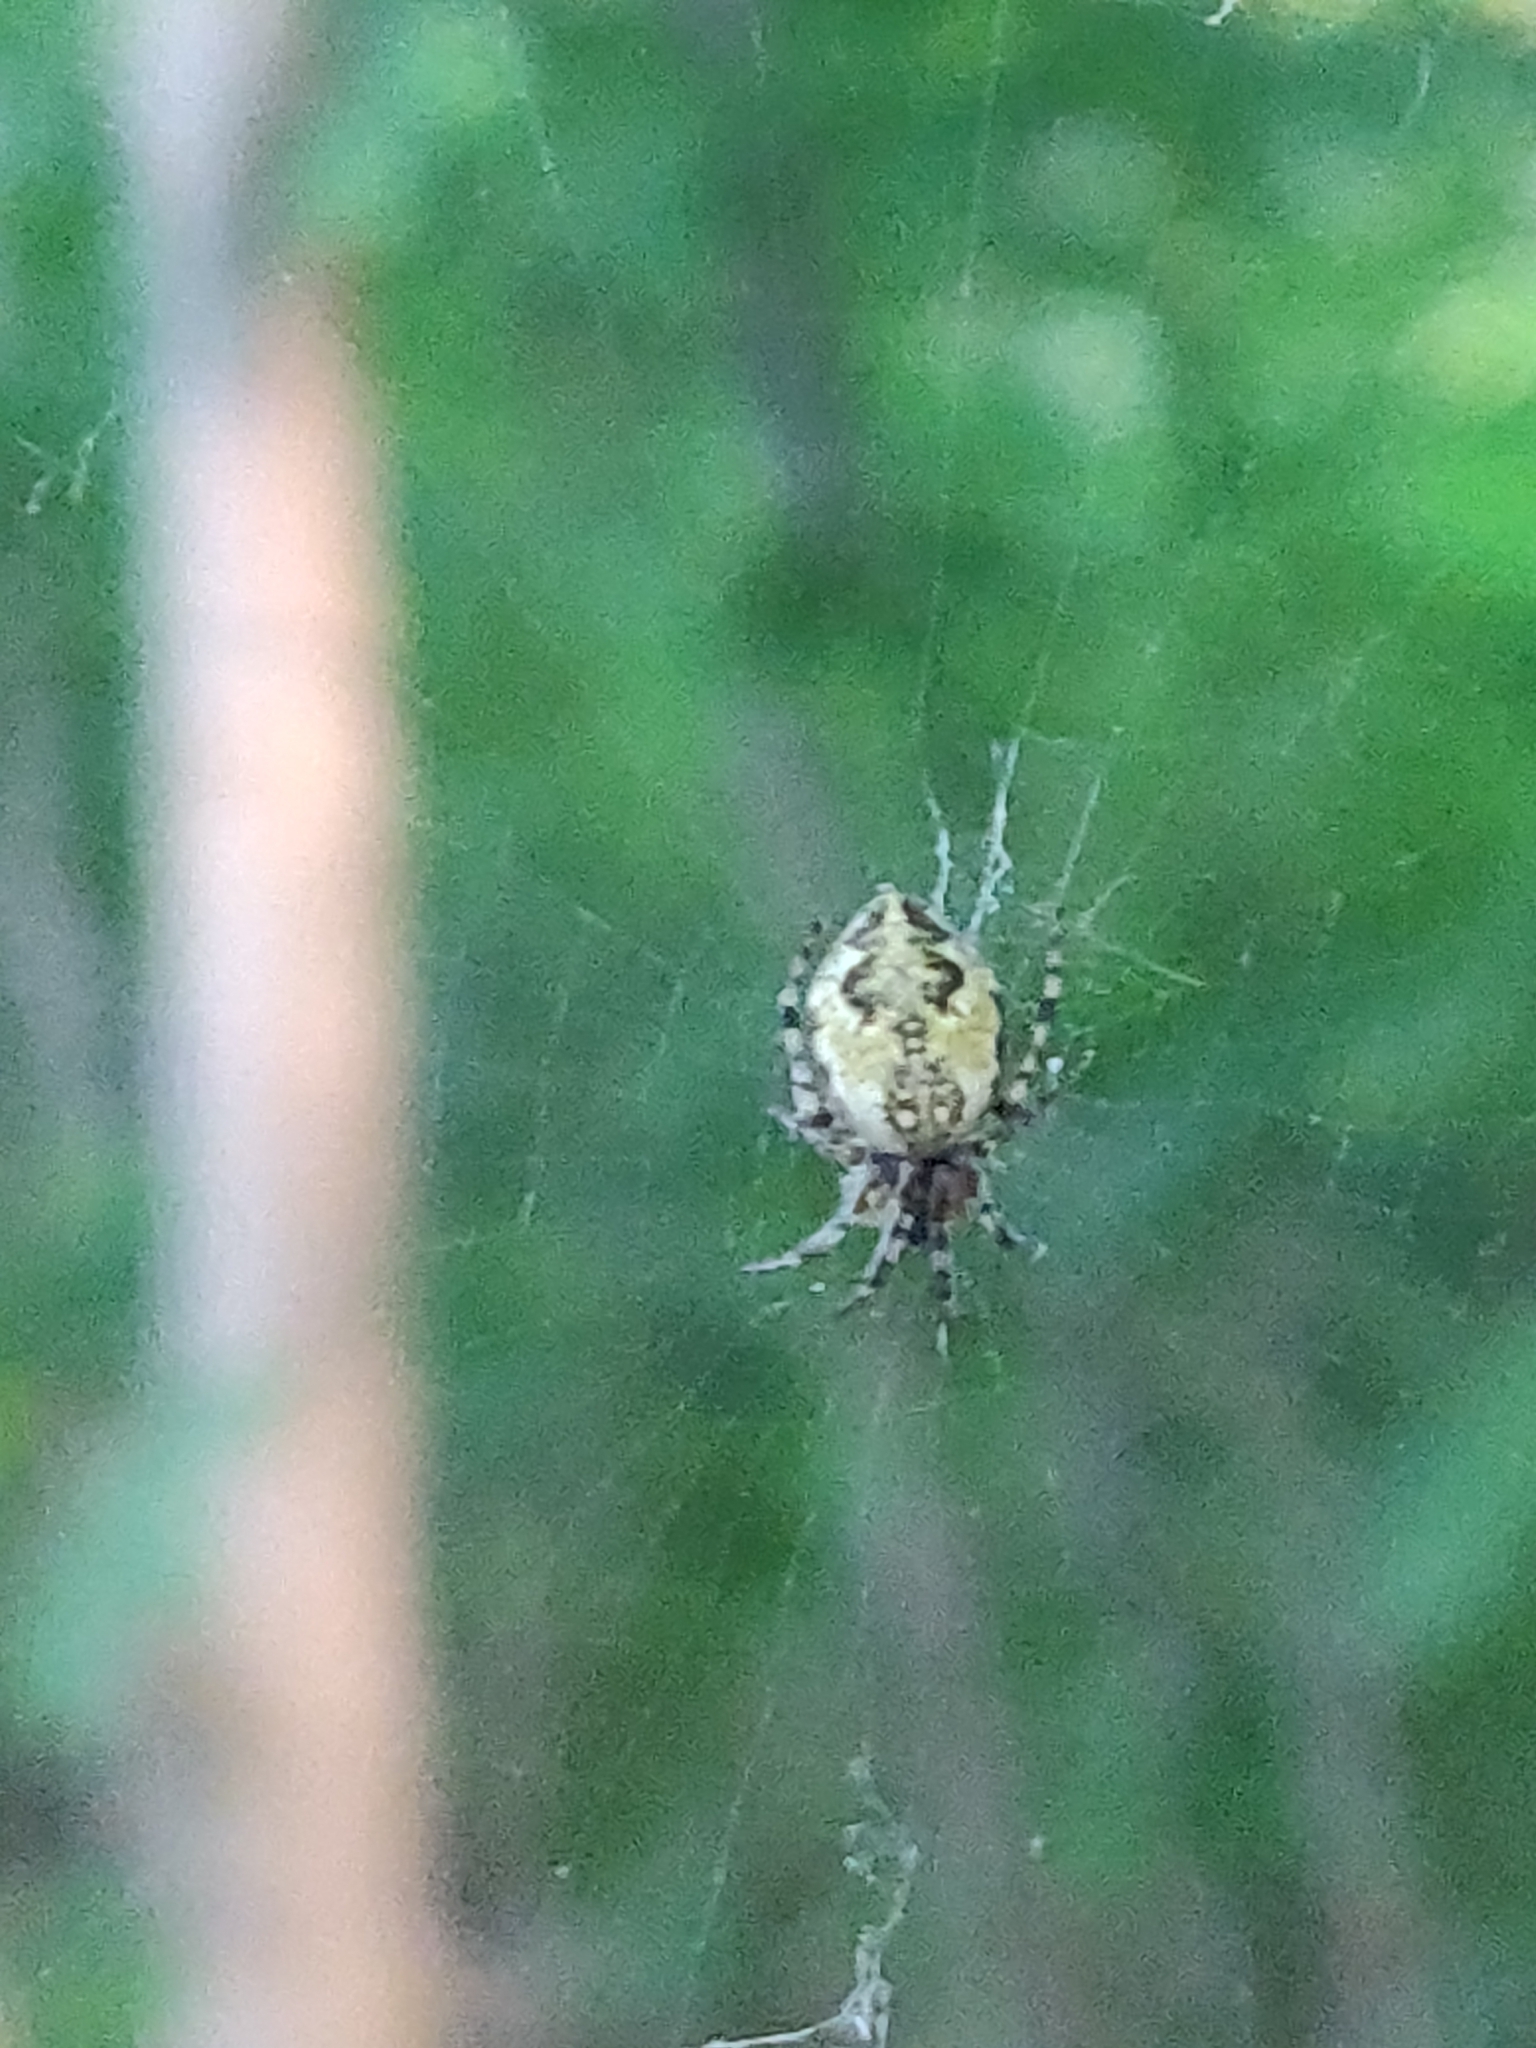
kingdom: Animalia
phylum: Arthropoda
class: Arachnida
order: Araneae
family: Araneidae
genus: Cyclosa
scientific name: Cyclosa conica
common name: Conical trashline orbweaver
